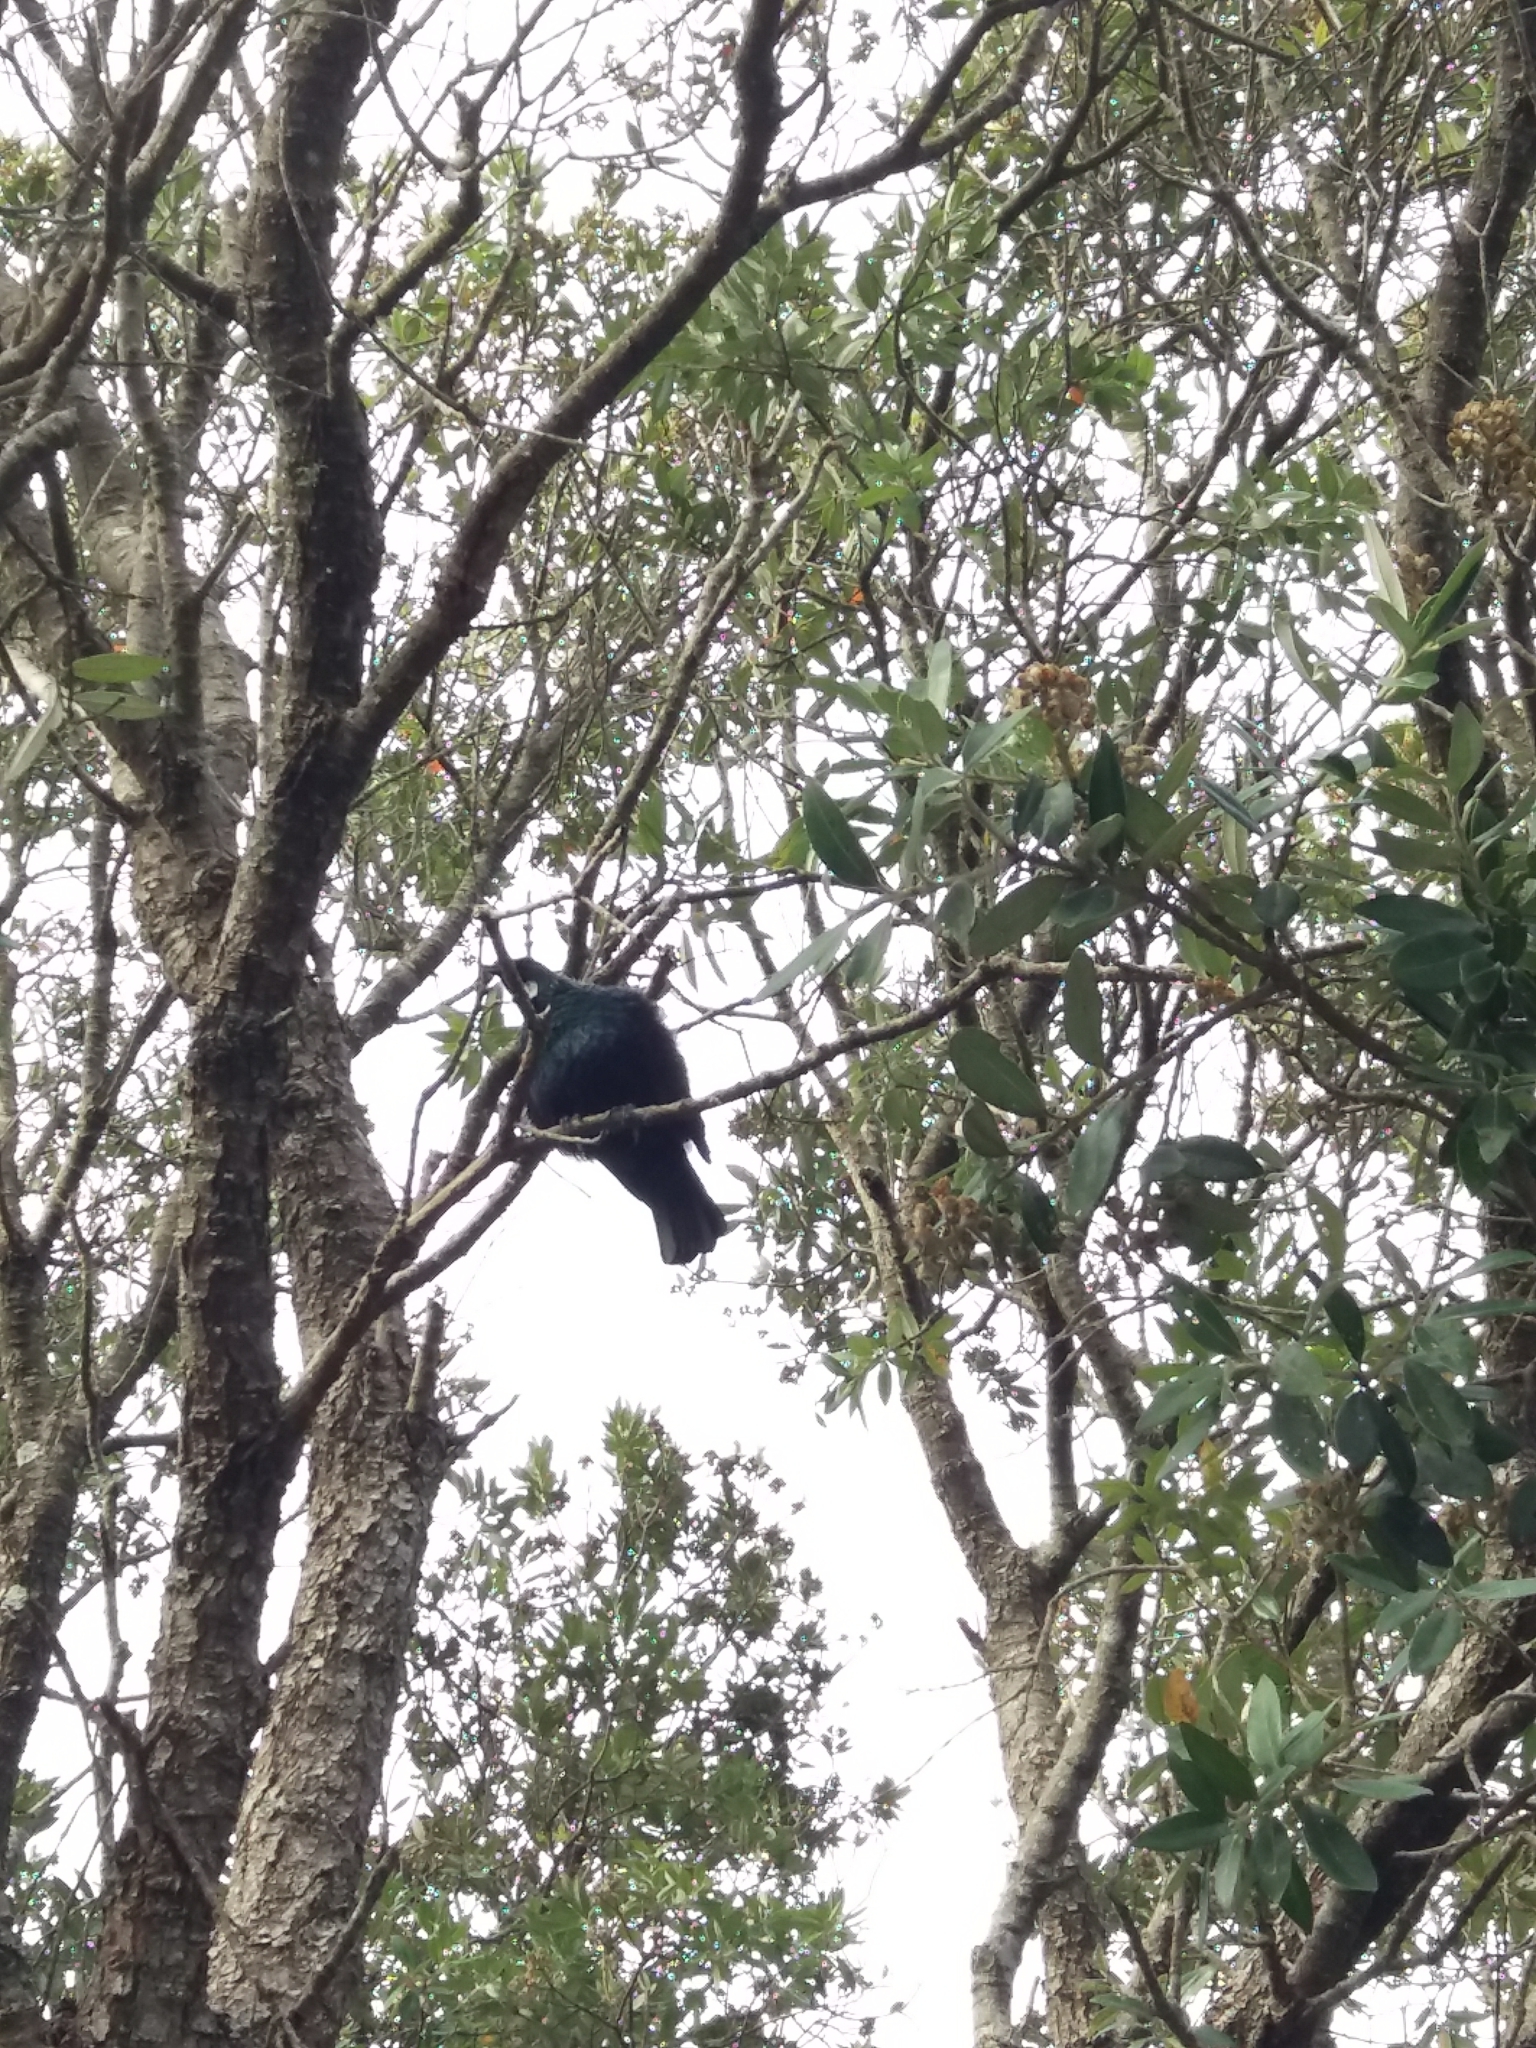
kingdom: Animalia
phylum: Chordata
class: Aves
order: Passeriformes
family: Meliphagidae
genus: Prosthemadera
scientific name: Prosthemadera novaeseelandiae
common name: Tui
